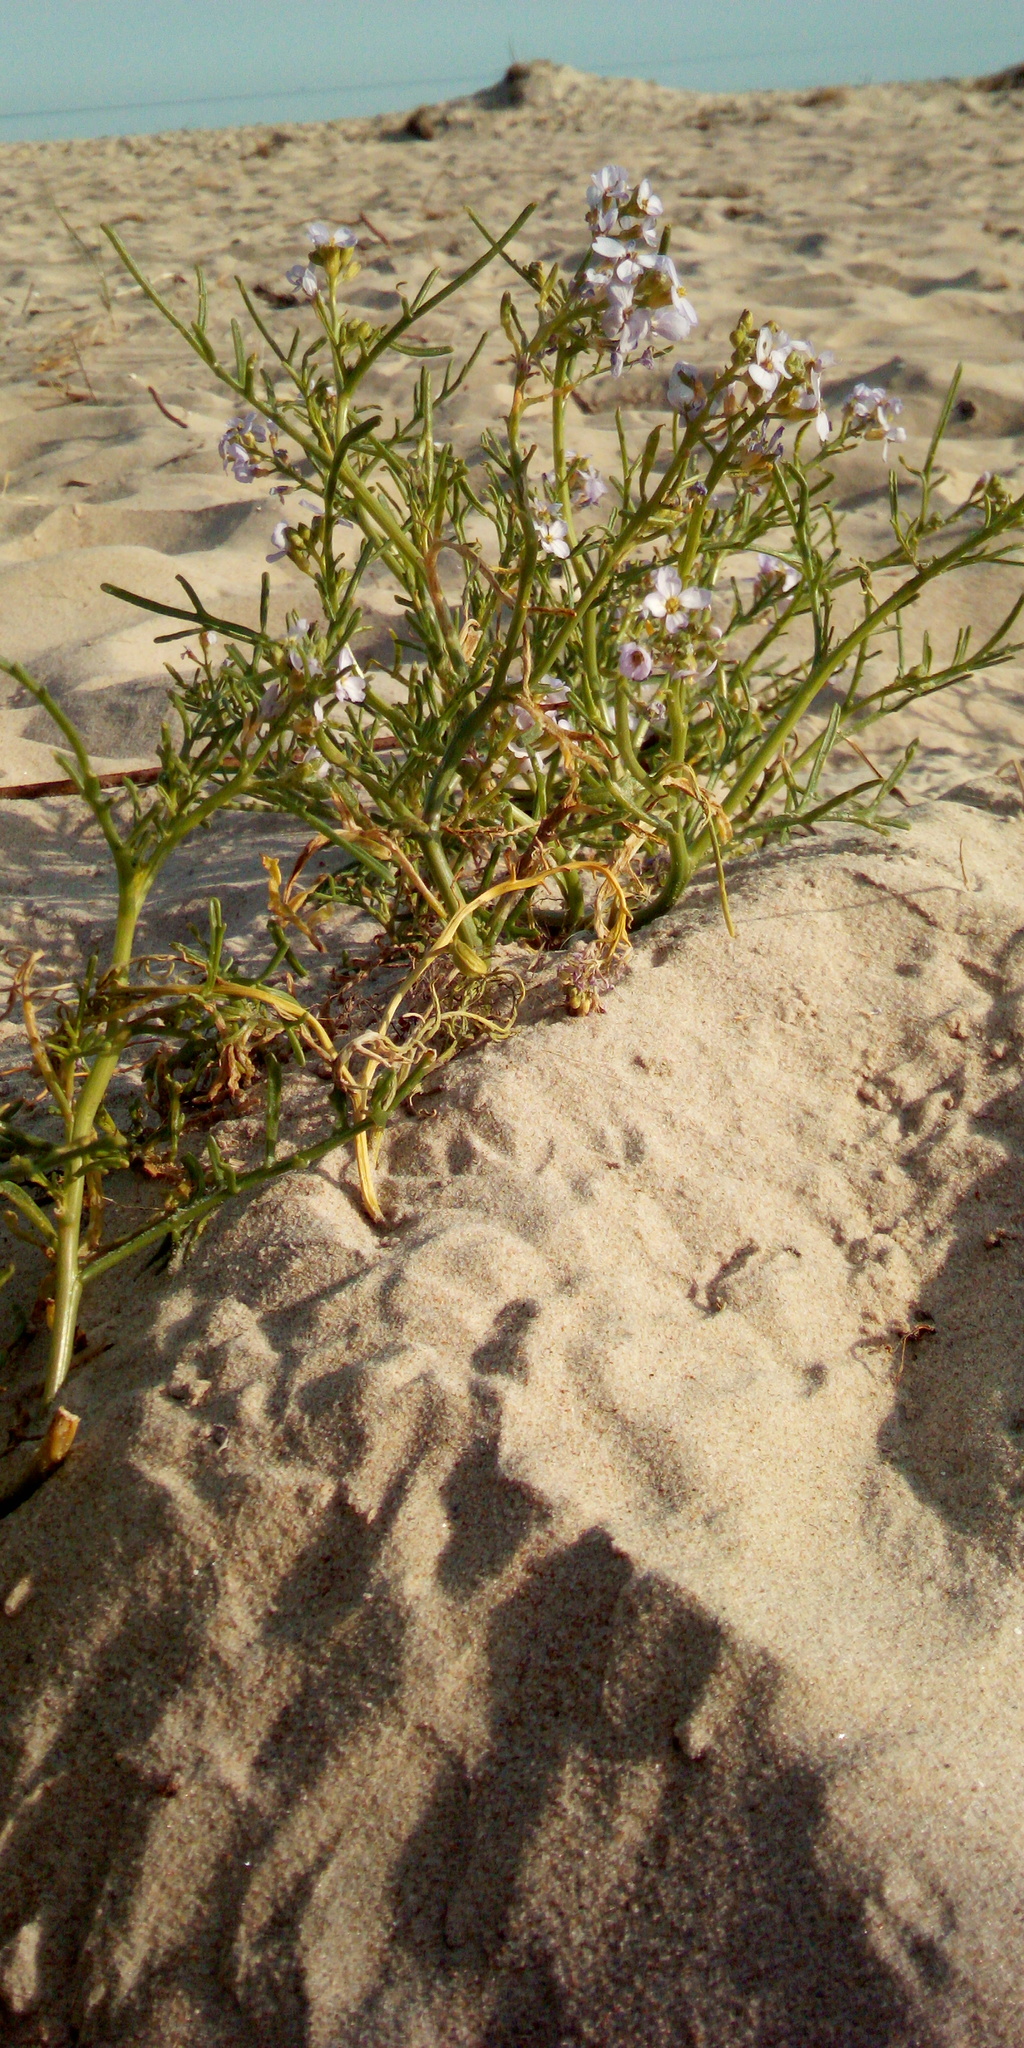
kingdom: Plantae
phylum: Tracheophyta
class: Magnoliopsida
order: Brassicales
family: Brassicaceae
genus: Cakile
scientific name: Cakile maritima
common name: Sea rocket
